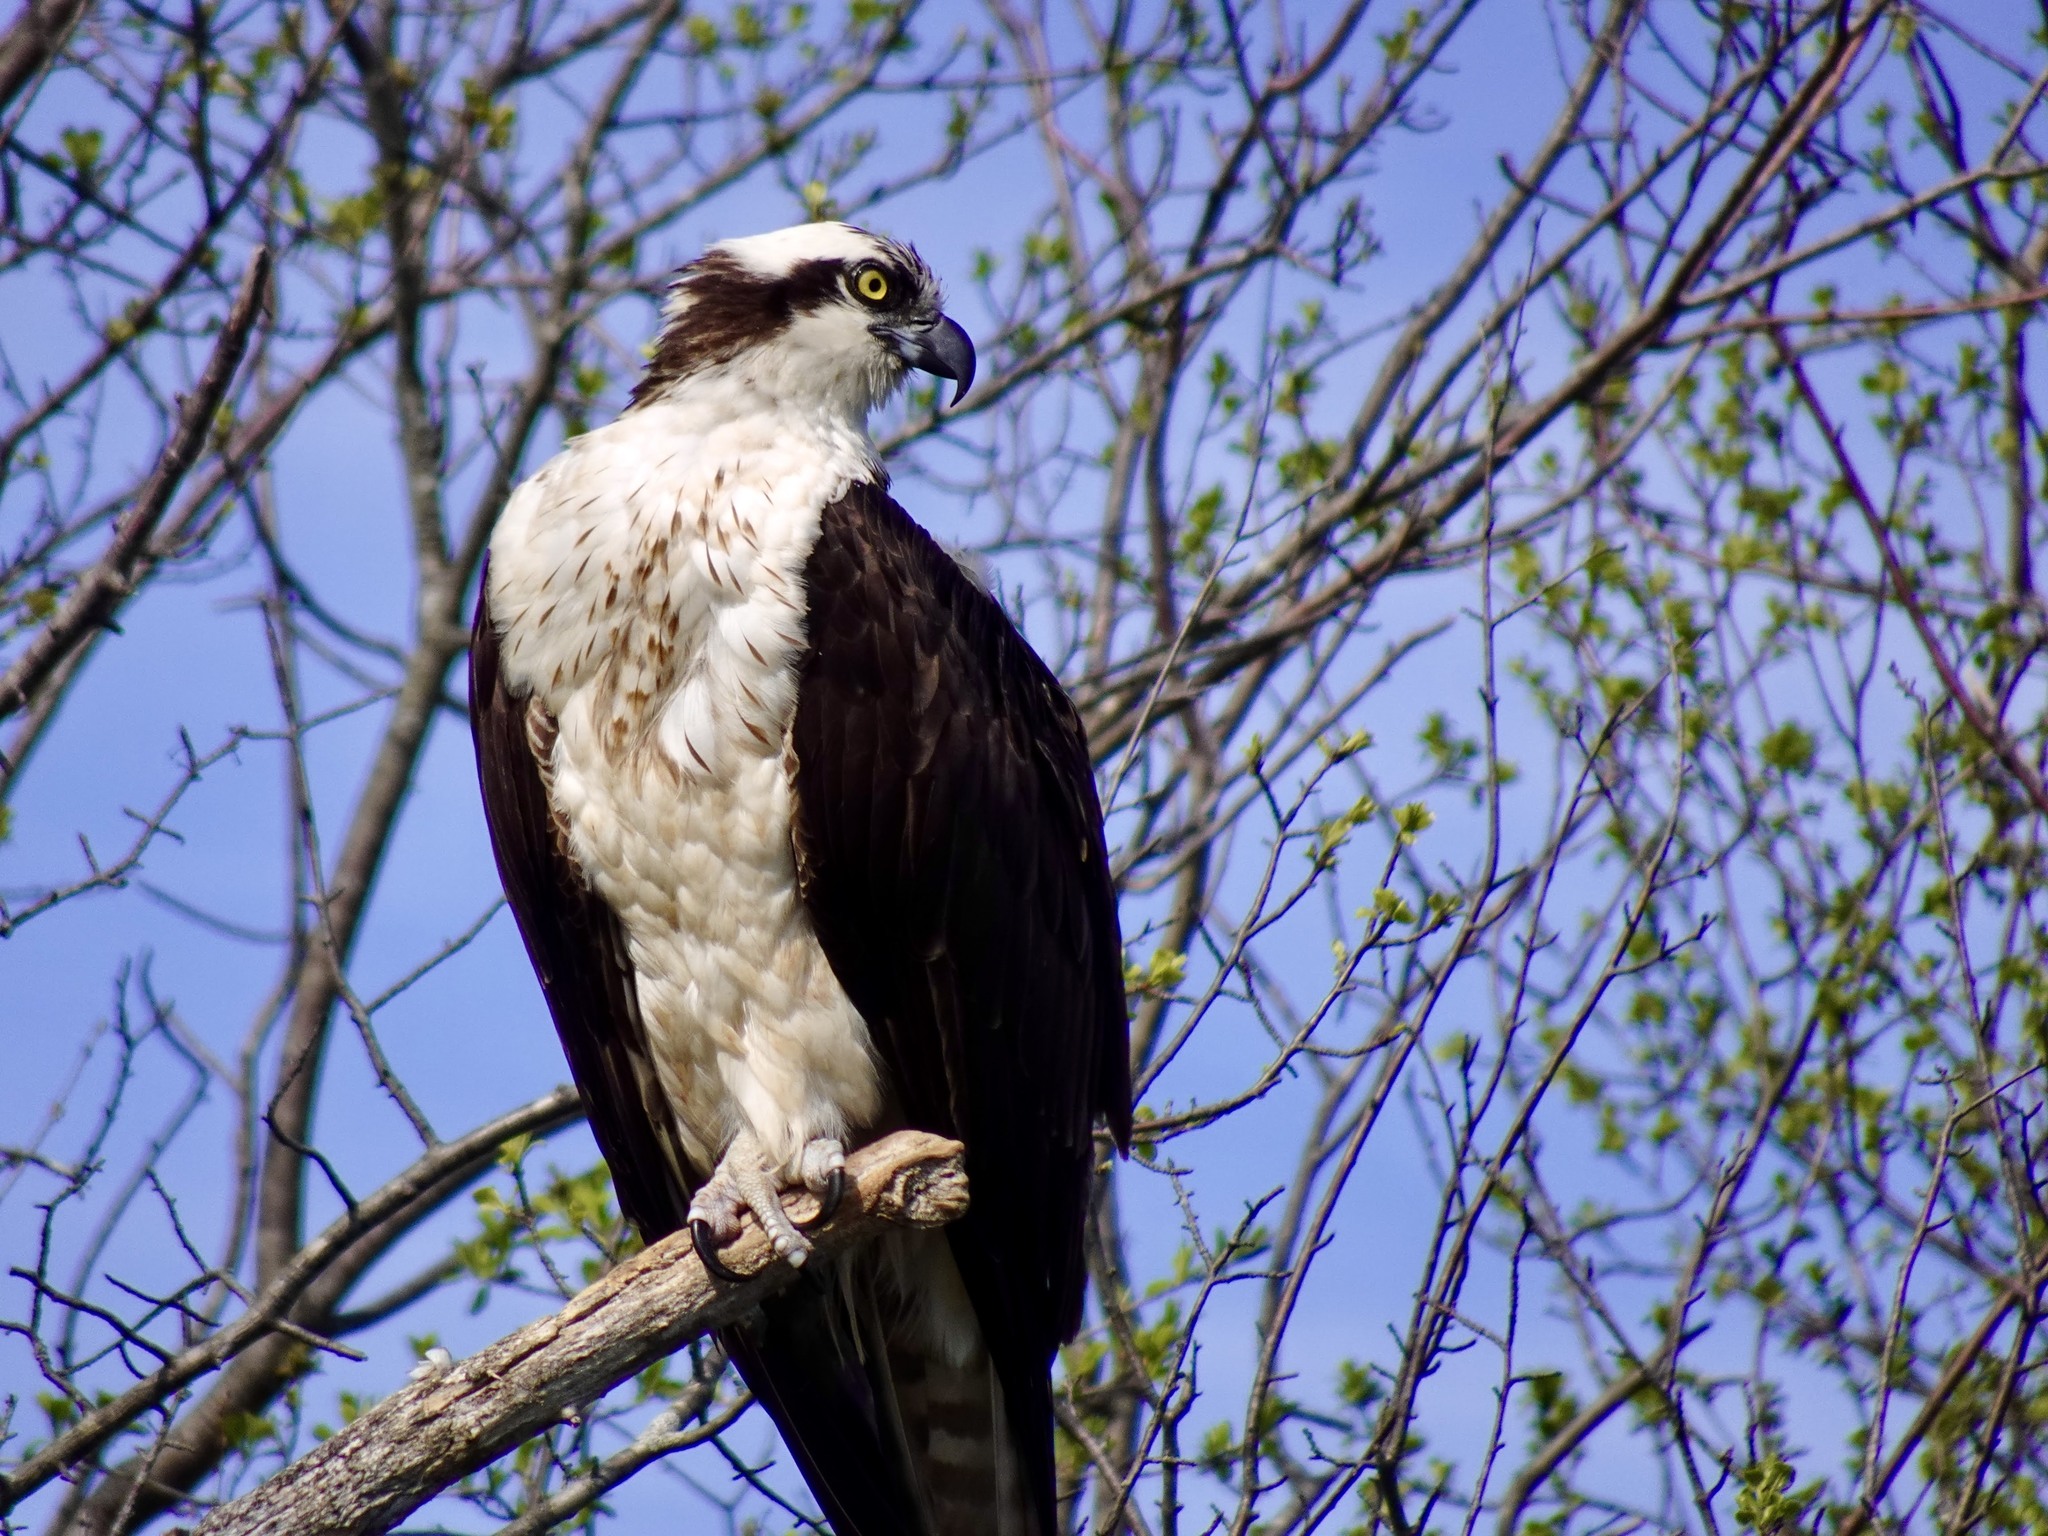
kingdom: Animalia
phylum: Chordata
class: Aves
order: Accipitriformes
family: Pandionidae
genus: Pandion
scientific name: Pandion haliaetus
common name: Osprey
